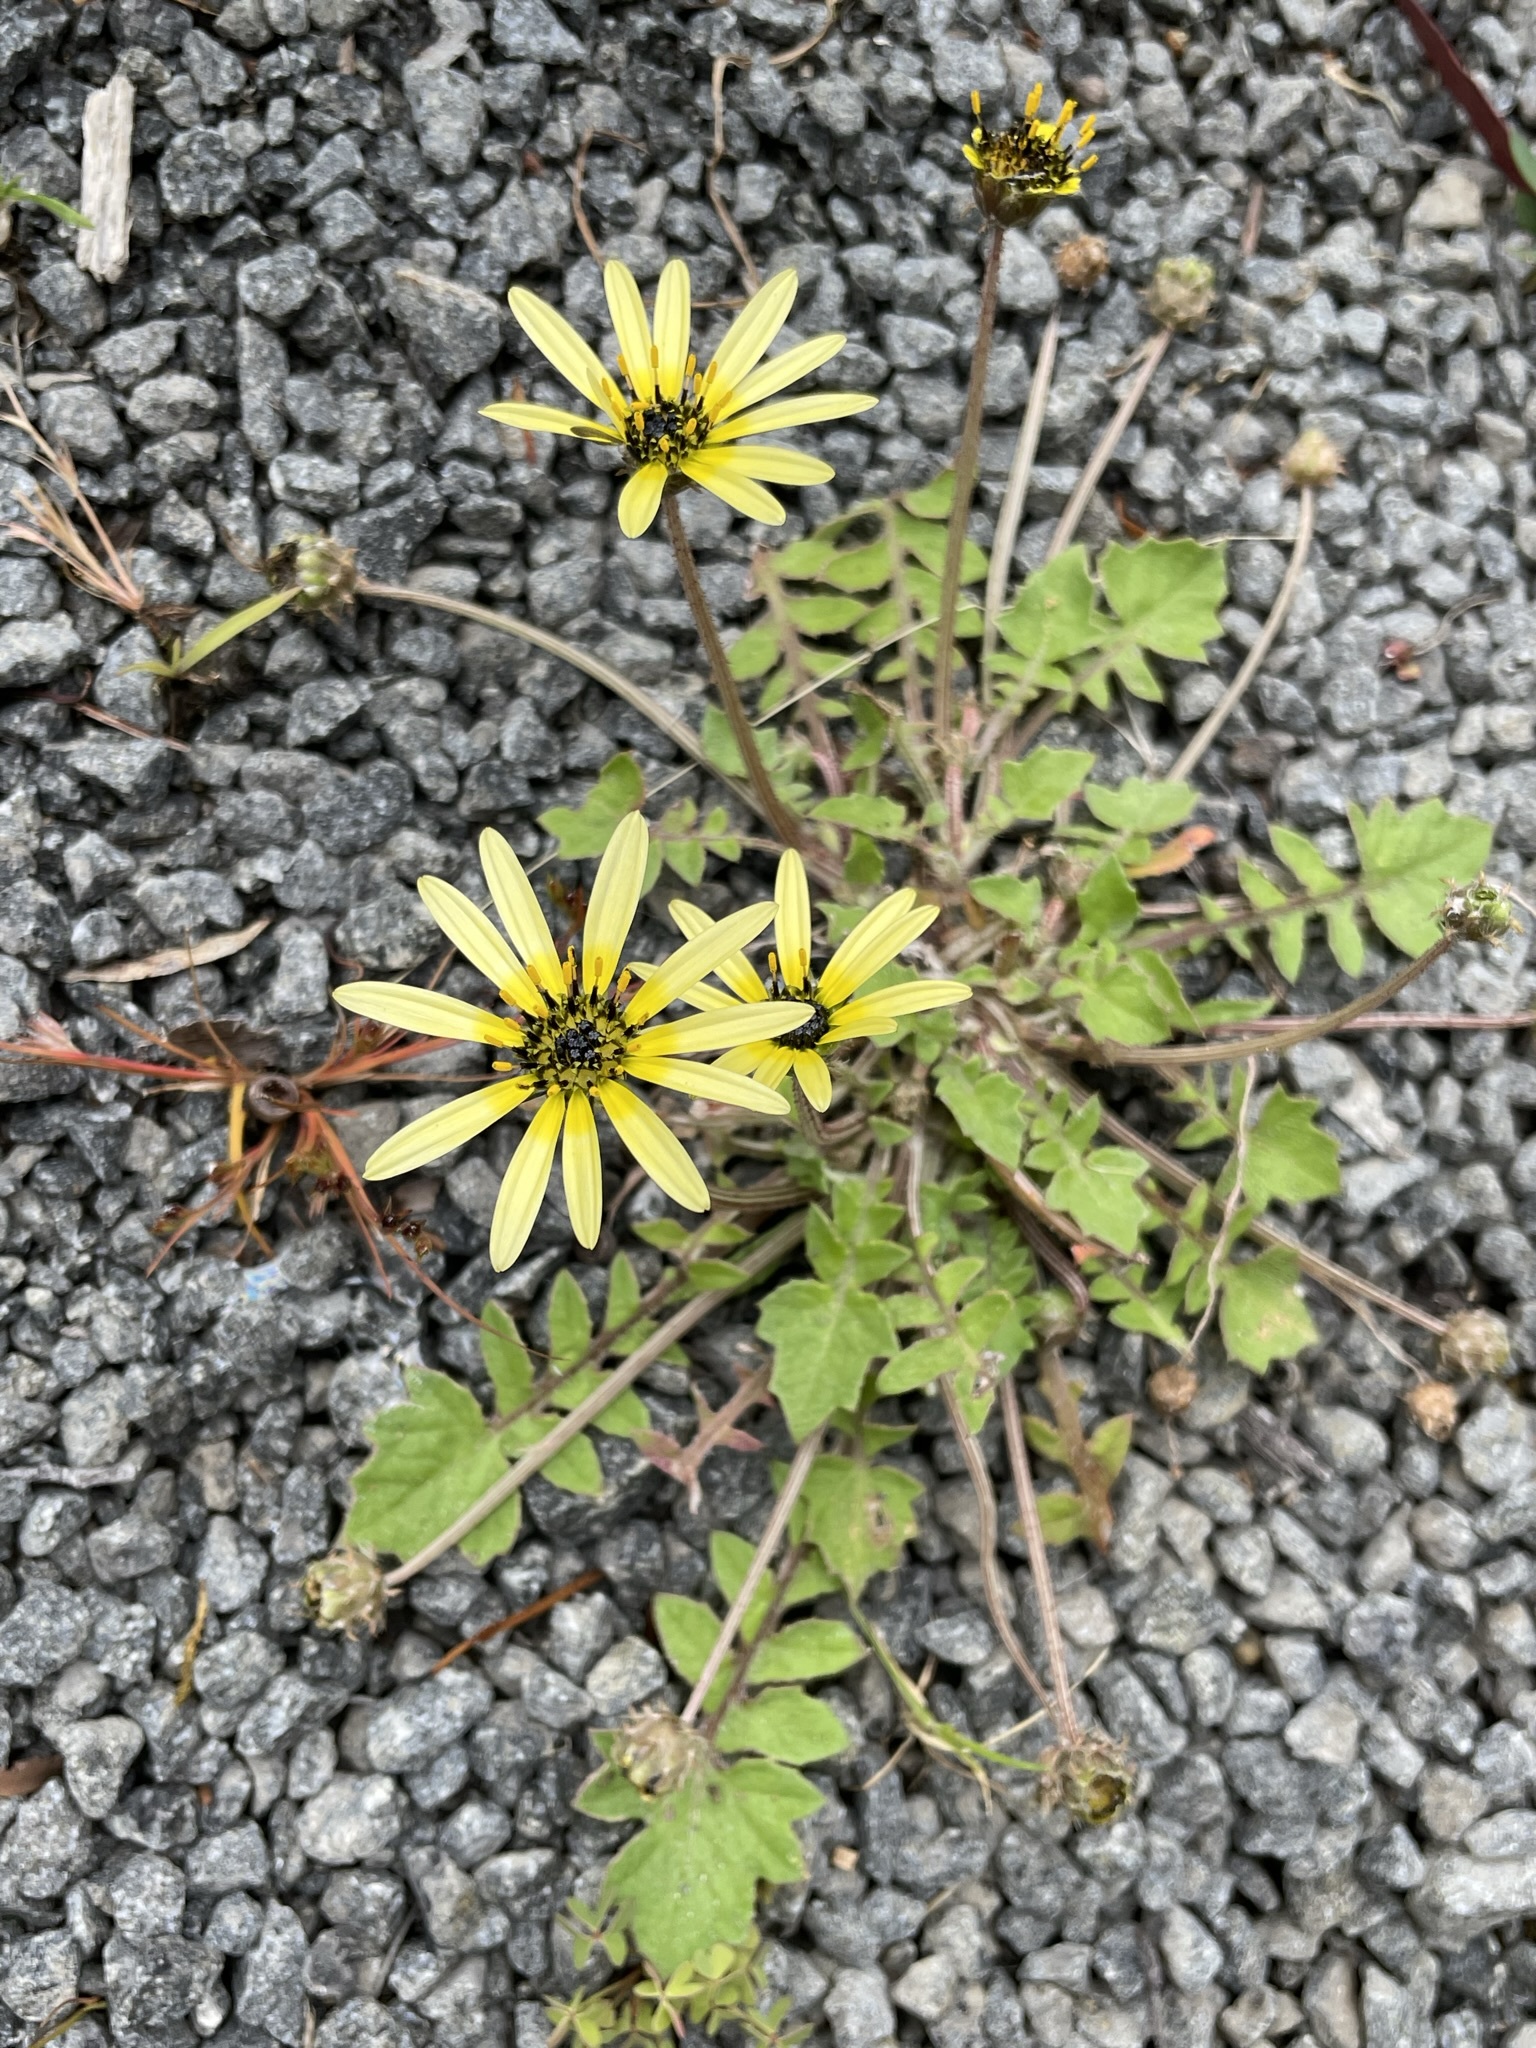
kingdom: Plantae
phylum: Tracheophyta
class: Magnoliopsida
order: Asterales
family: Asteraceae
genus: Arctotheca
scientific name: Arctotheca calendula
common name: Capeweed
